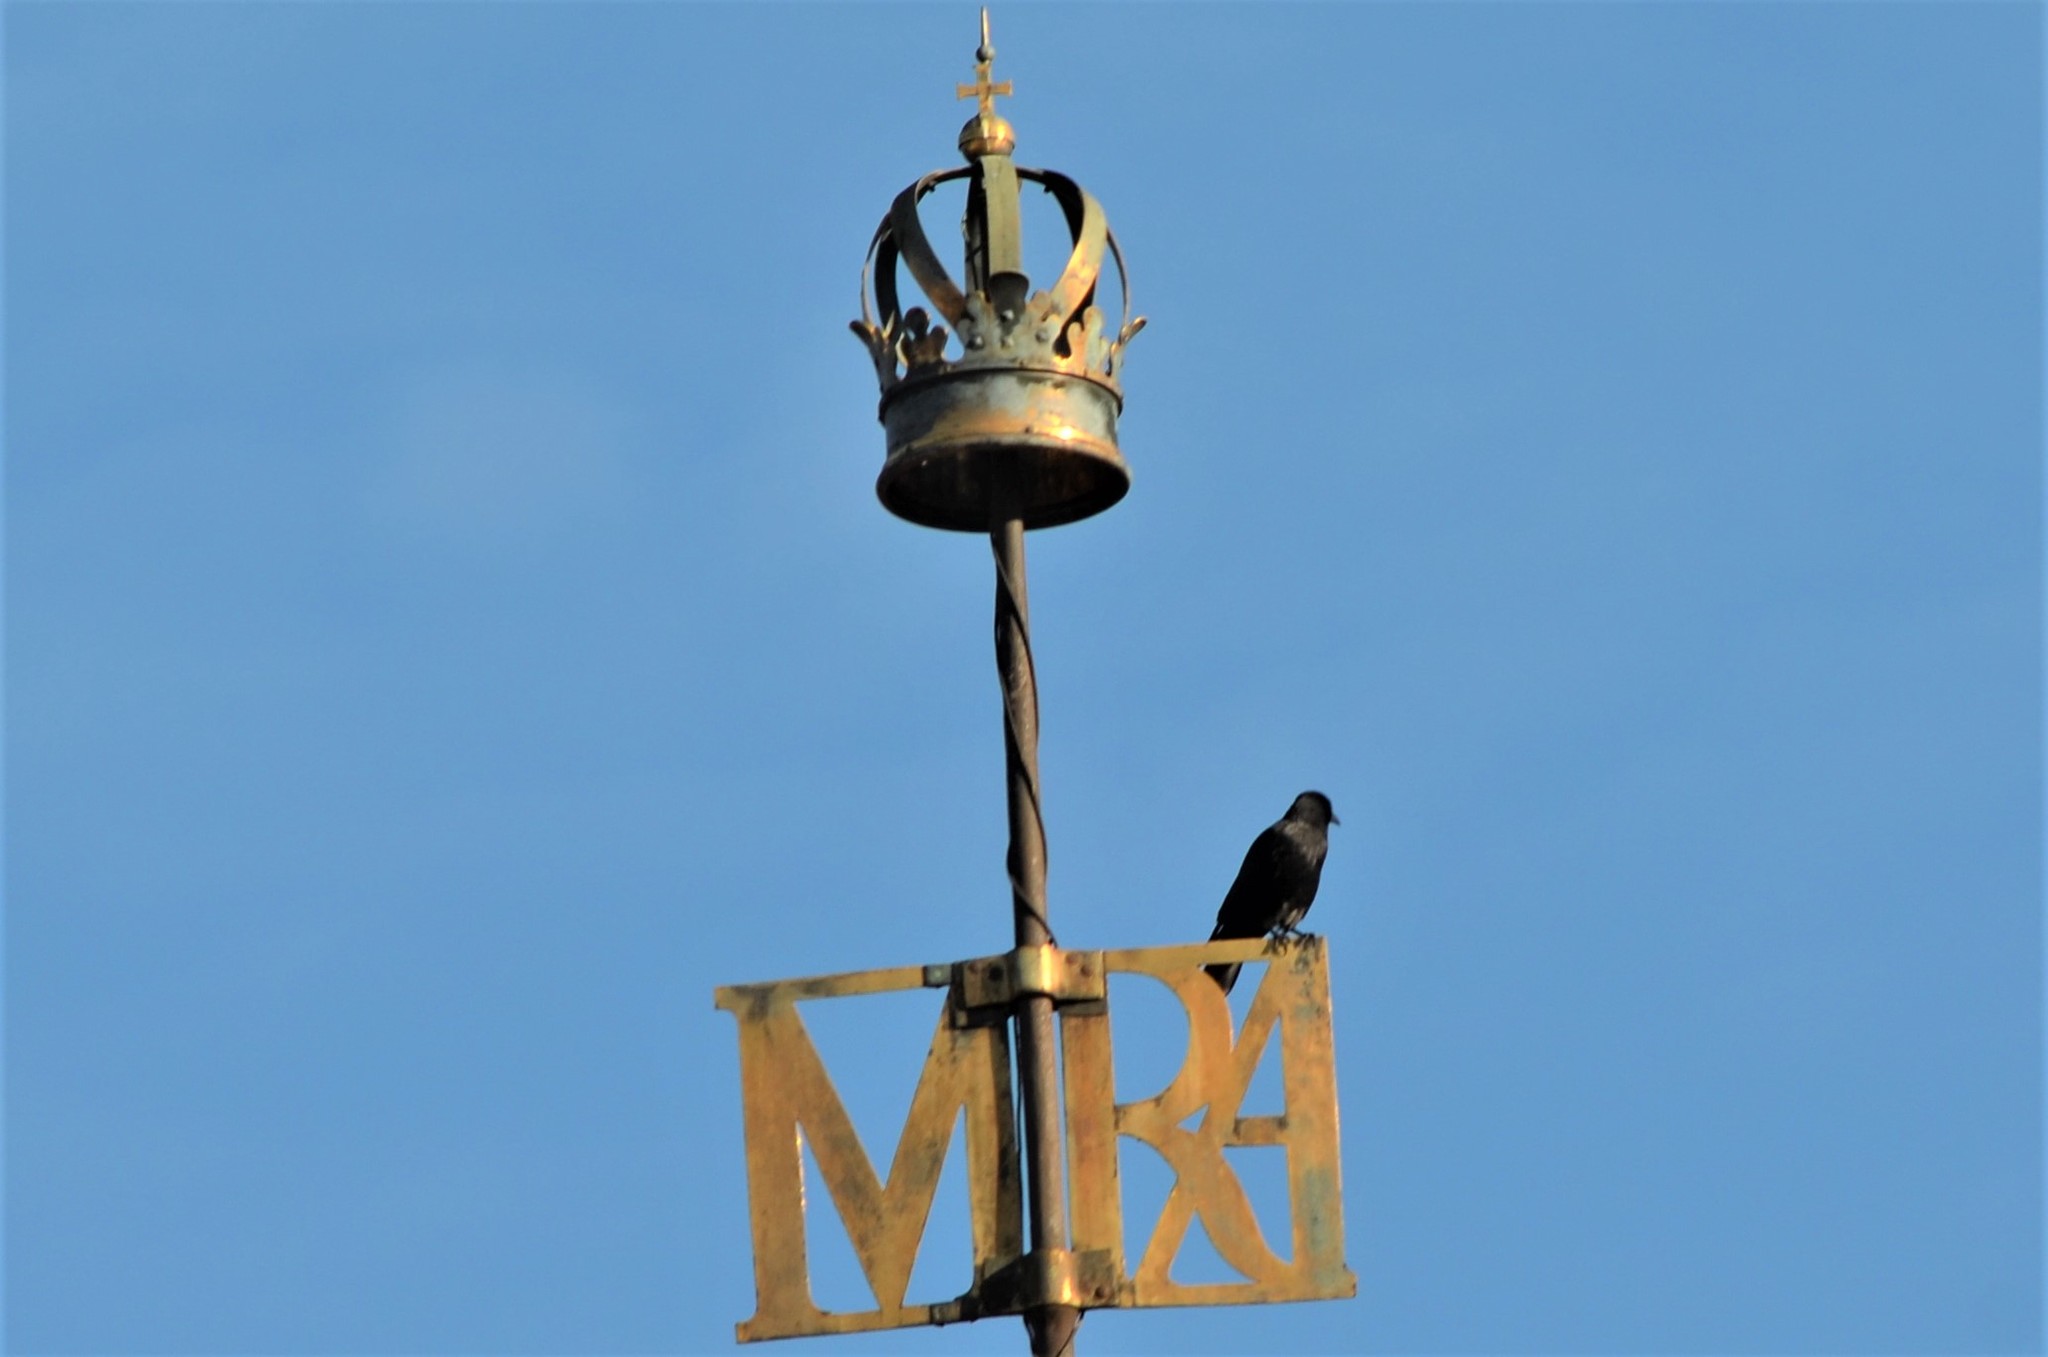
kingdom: Animalia
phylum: Chordata
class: Aves
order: Passeriformes
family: Corvidae
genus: Corvus
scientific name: Corvus cornix
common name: Hooded crow
